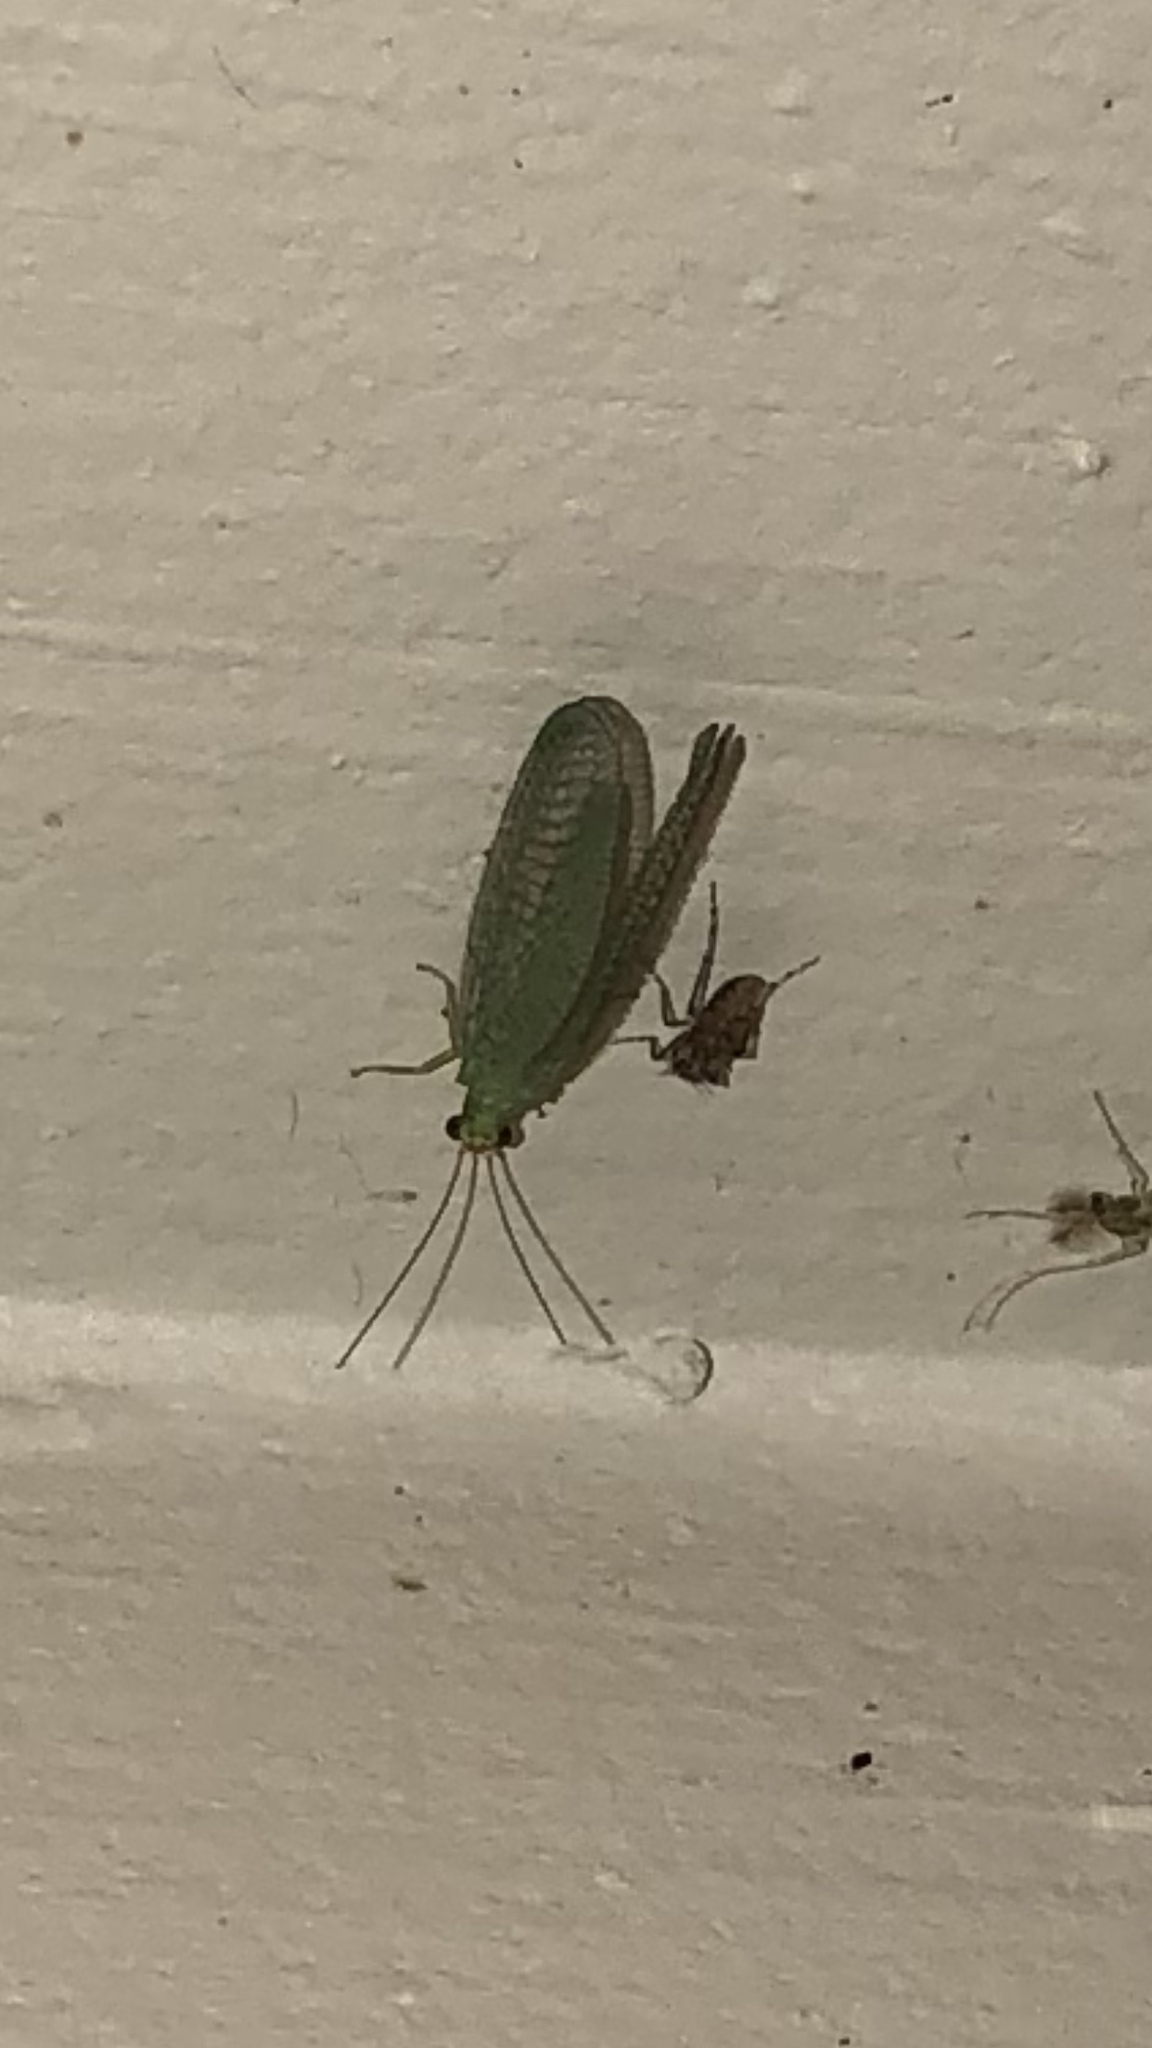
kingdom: Animalia
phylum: Arthropoda
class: Insecta
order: Neuroptera
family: Chrysopidae
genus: Chrysopa
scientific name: Chrysopa oculata
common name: Golden-eyed lacewing
